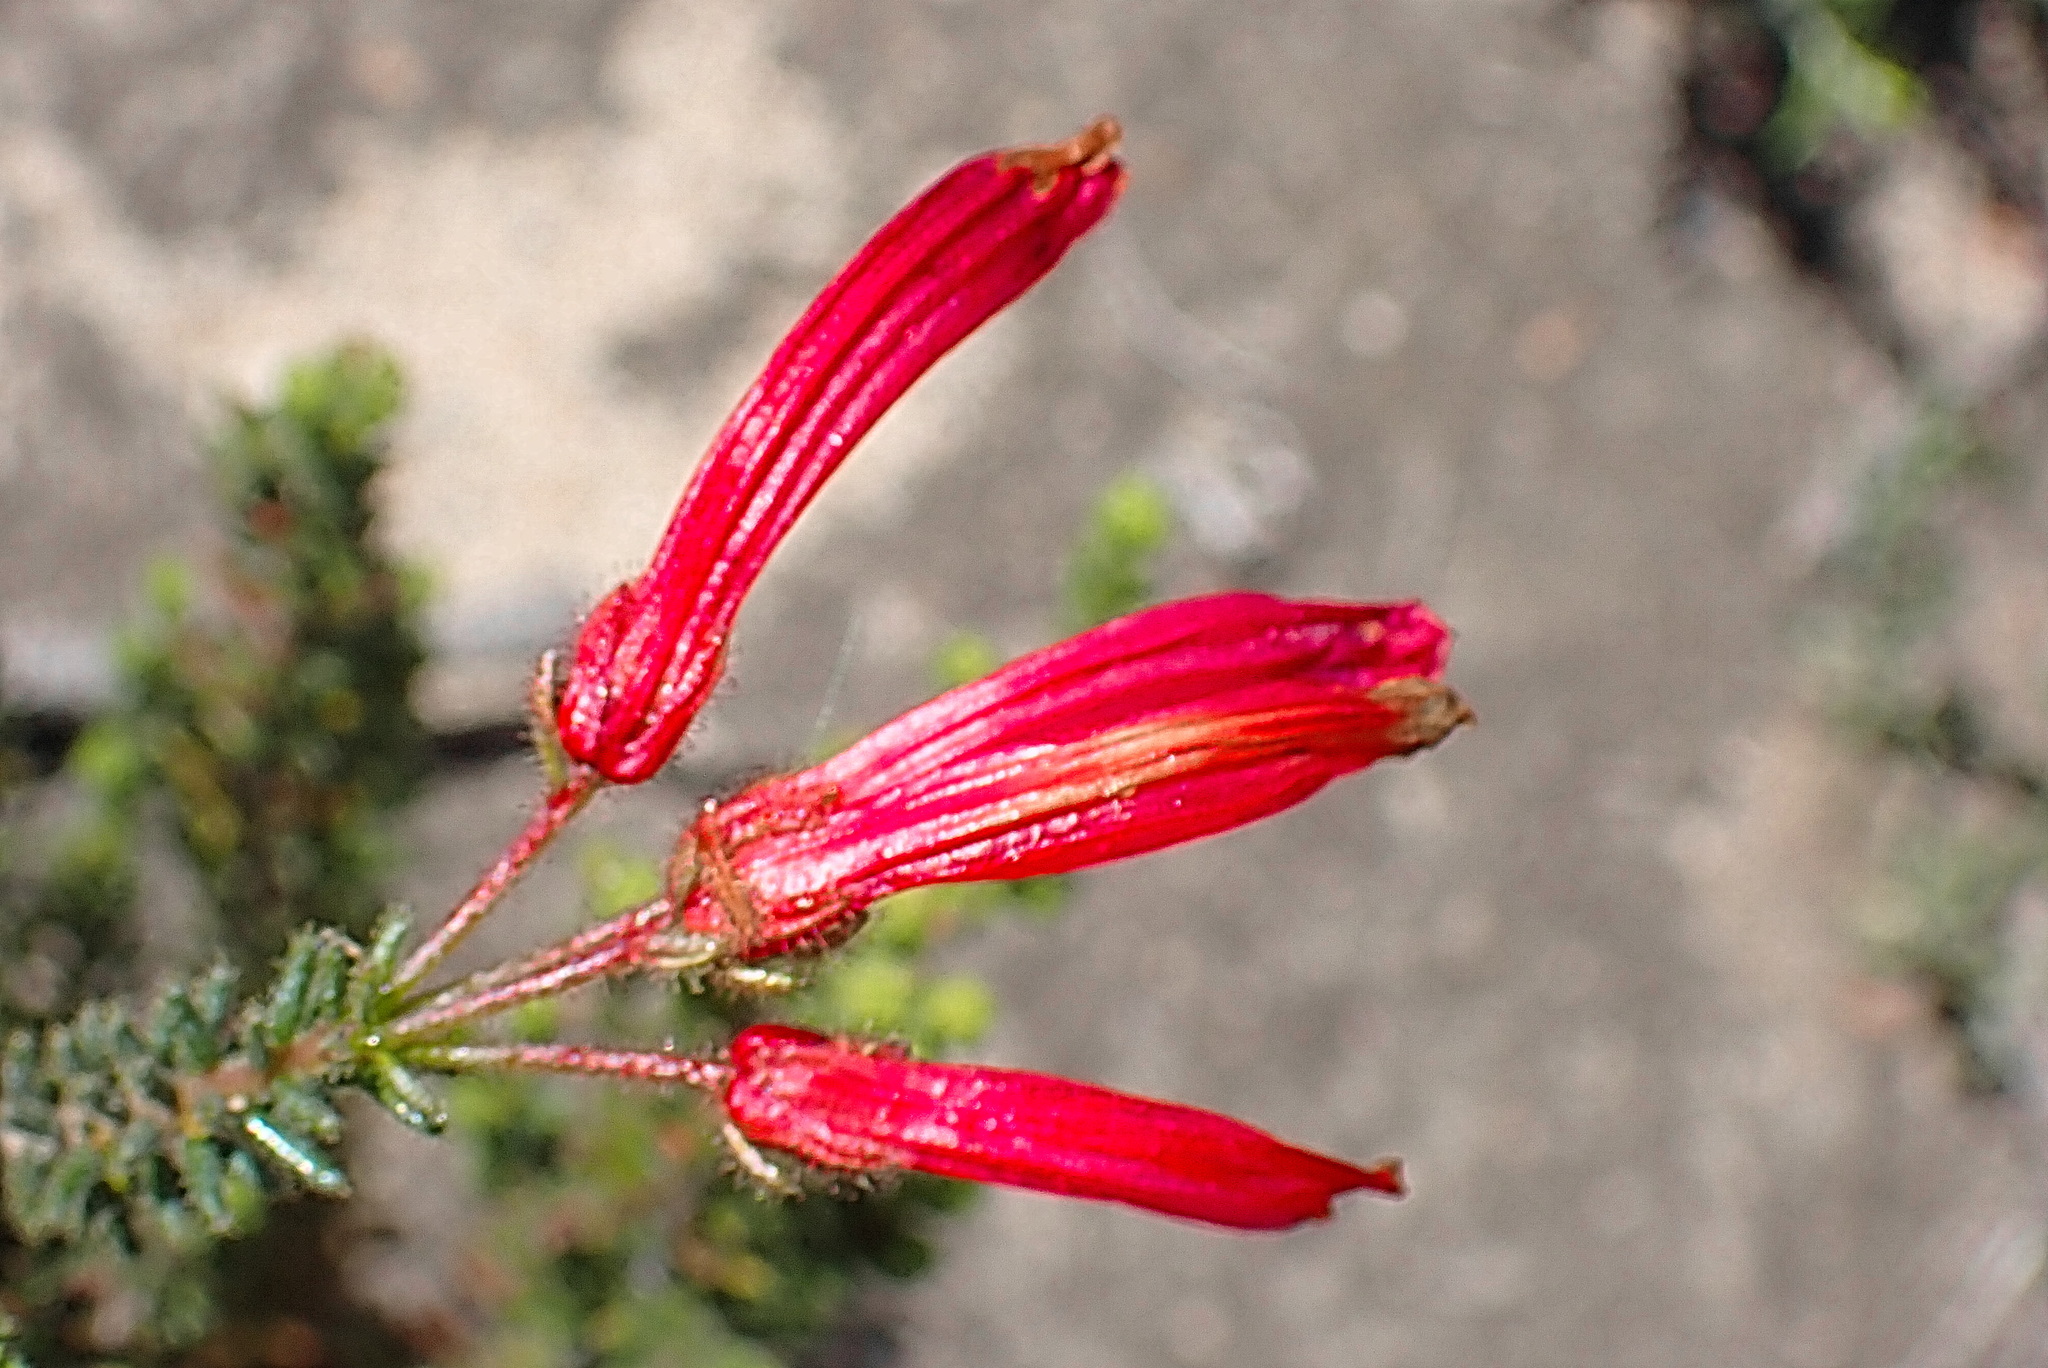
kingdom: Plantae
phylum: Tracheophyta
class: Magnoliopsida
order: Ericales
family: Ericaceae
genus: Erica
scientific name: Erica glandulosa
